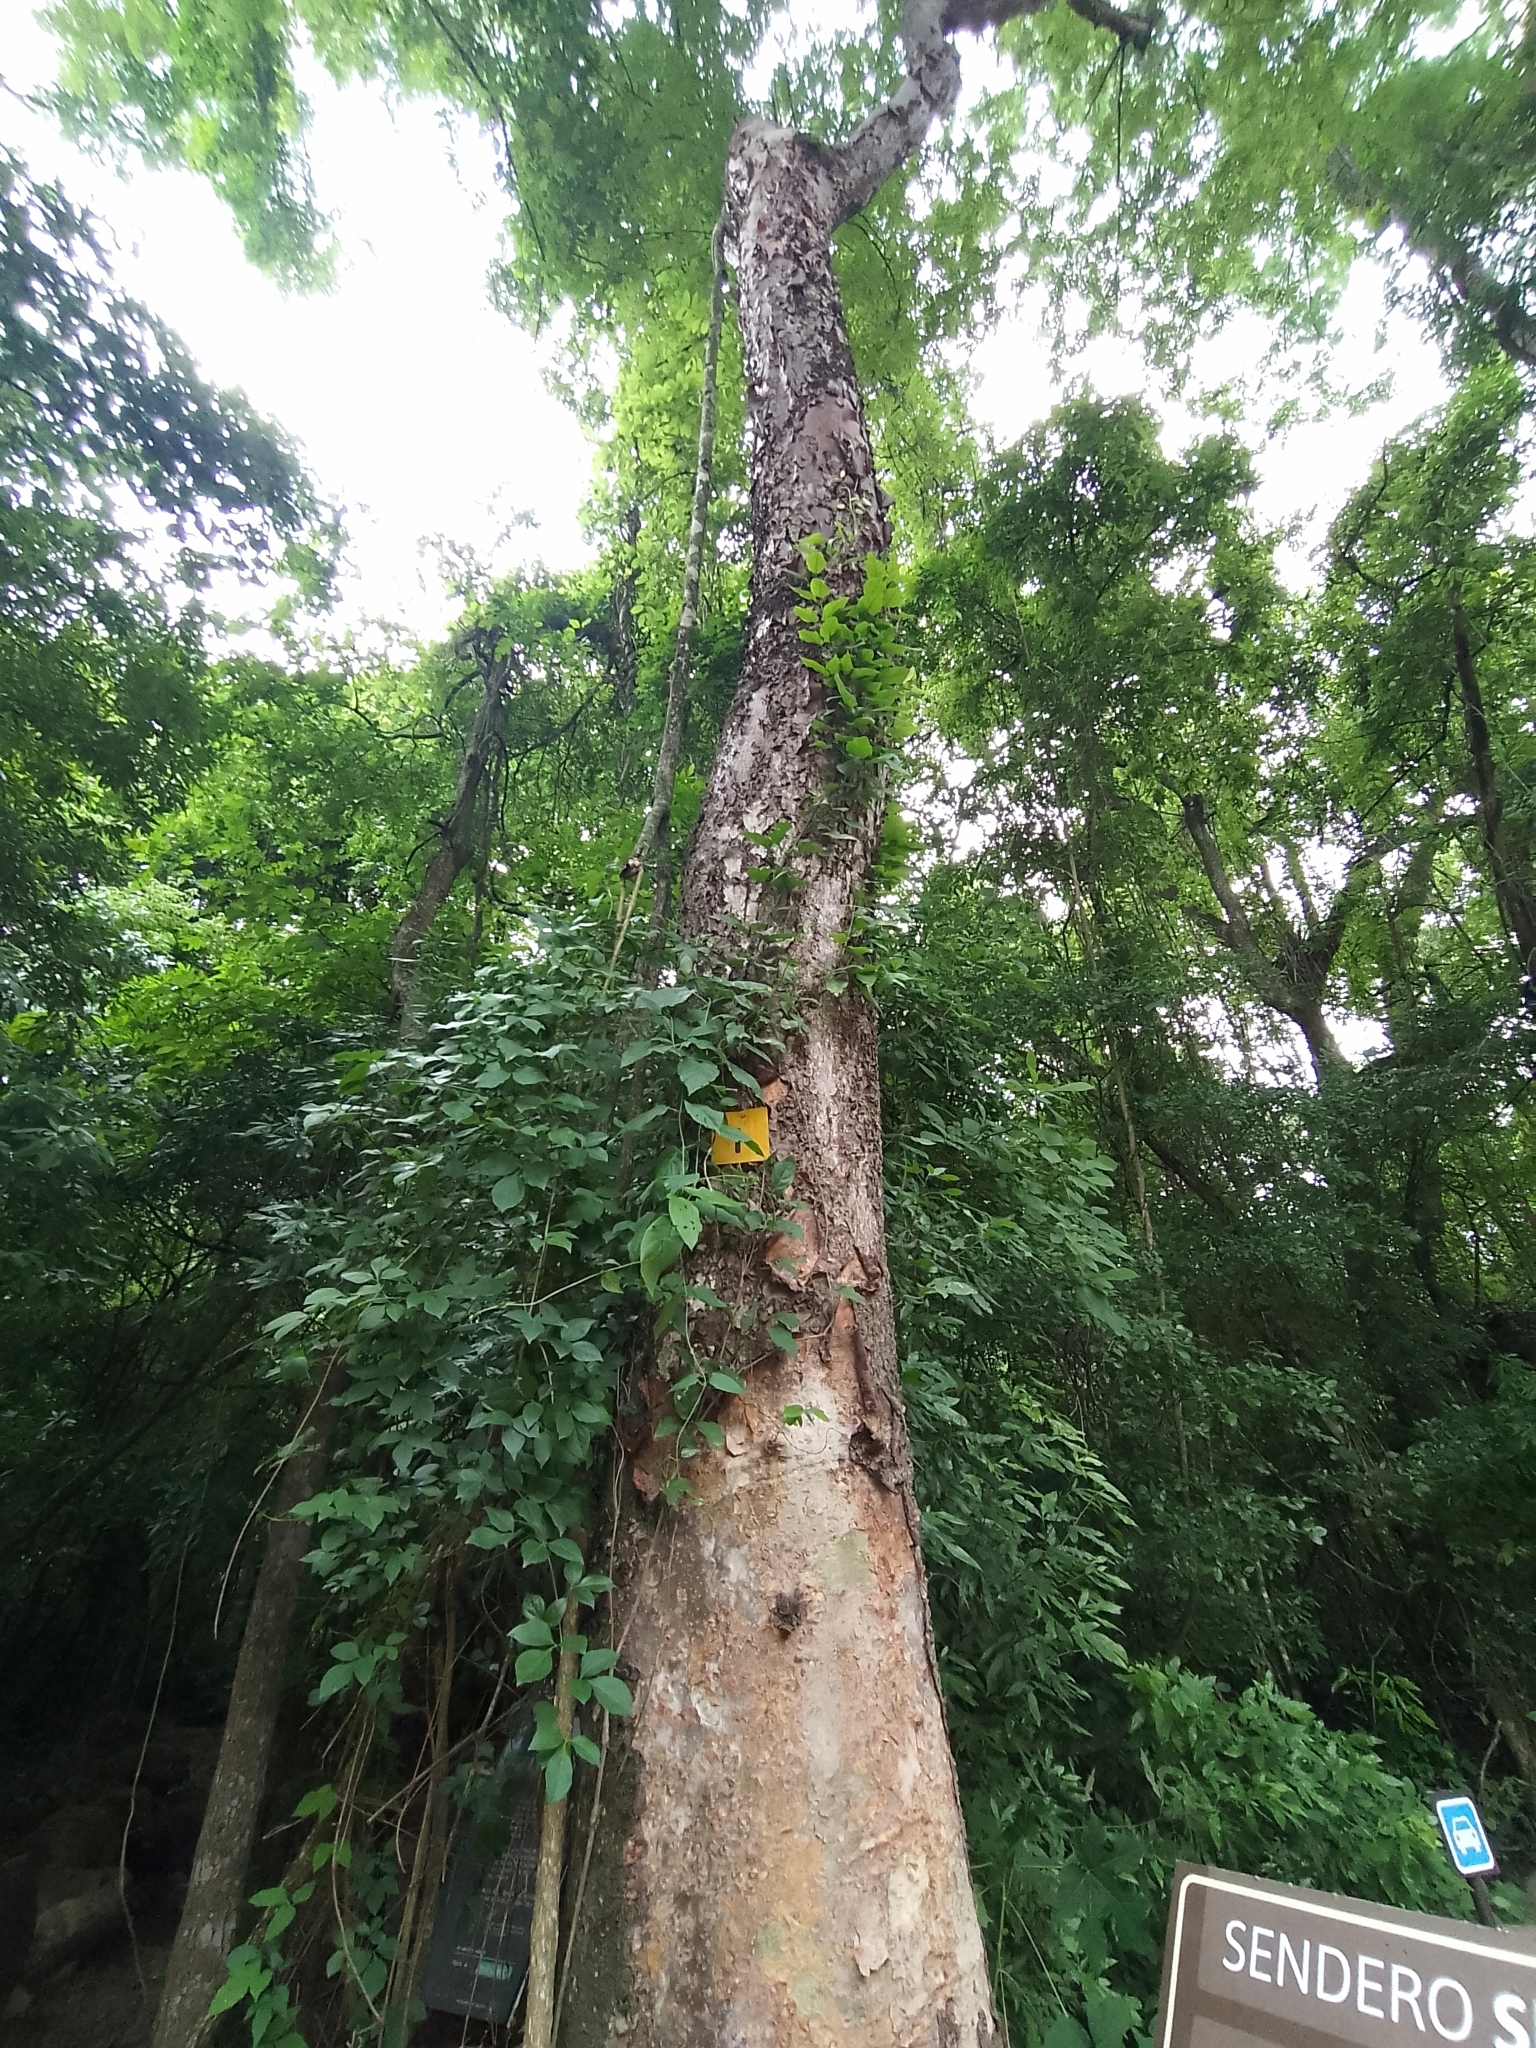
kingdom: Plantae
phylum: Tracheophyta
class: Magnoliopsida
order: Fabales
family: Fabaceae
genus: Amburana
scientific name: Amburana cearensis
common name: Cerejeira
